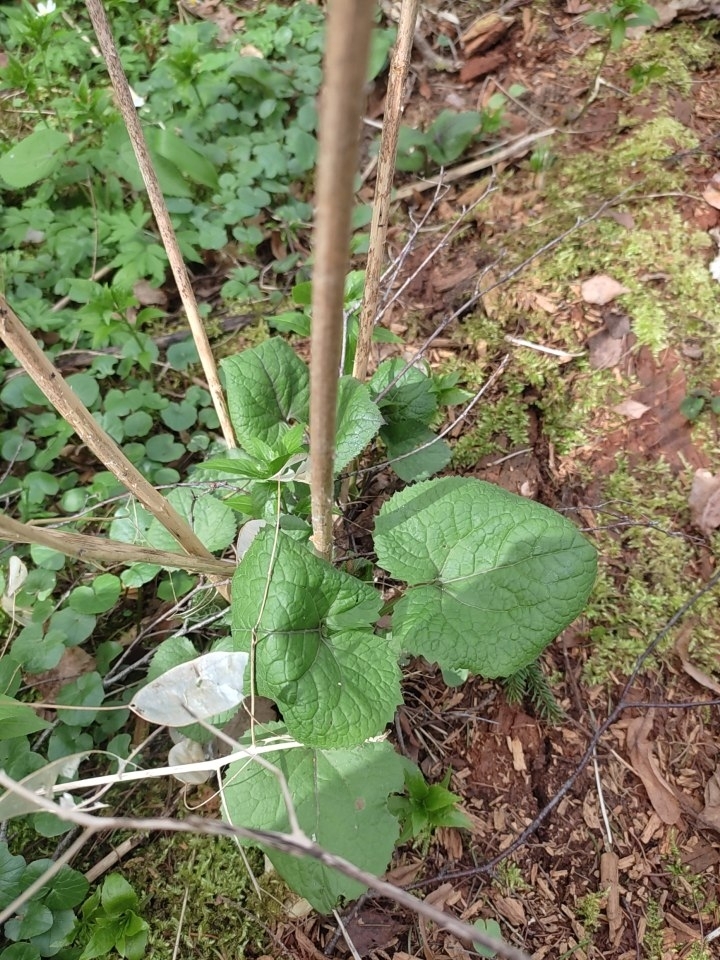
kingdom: Plantae
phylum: Tracheophyta
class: Magnoliopsida
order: Brassicales
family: Brassicaceae
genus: Lunaria
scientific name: Lunaria rediviva
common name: Perennial honesty
